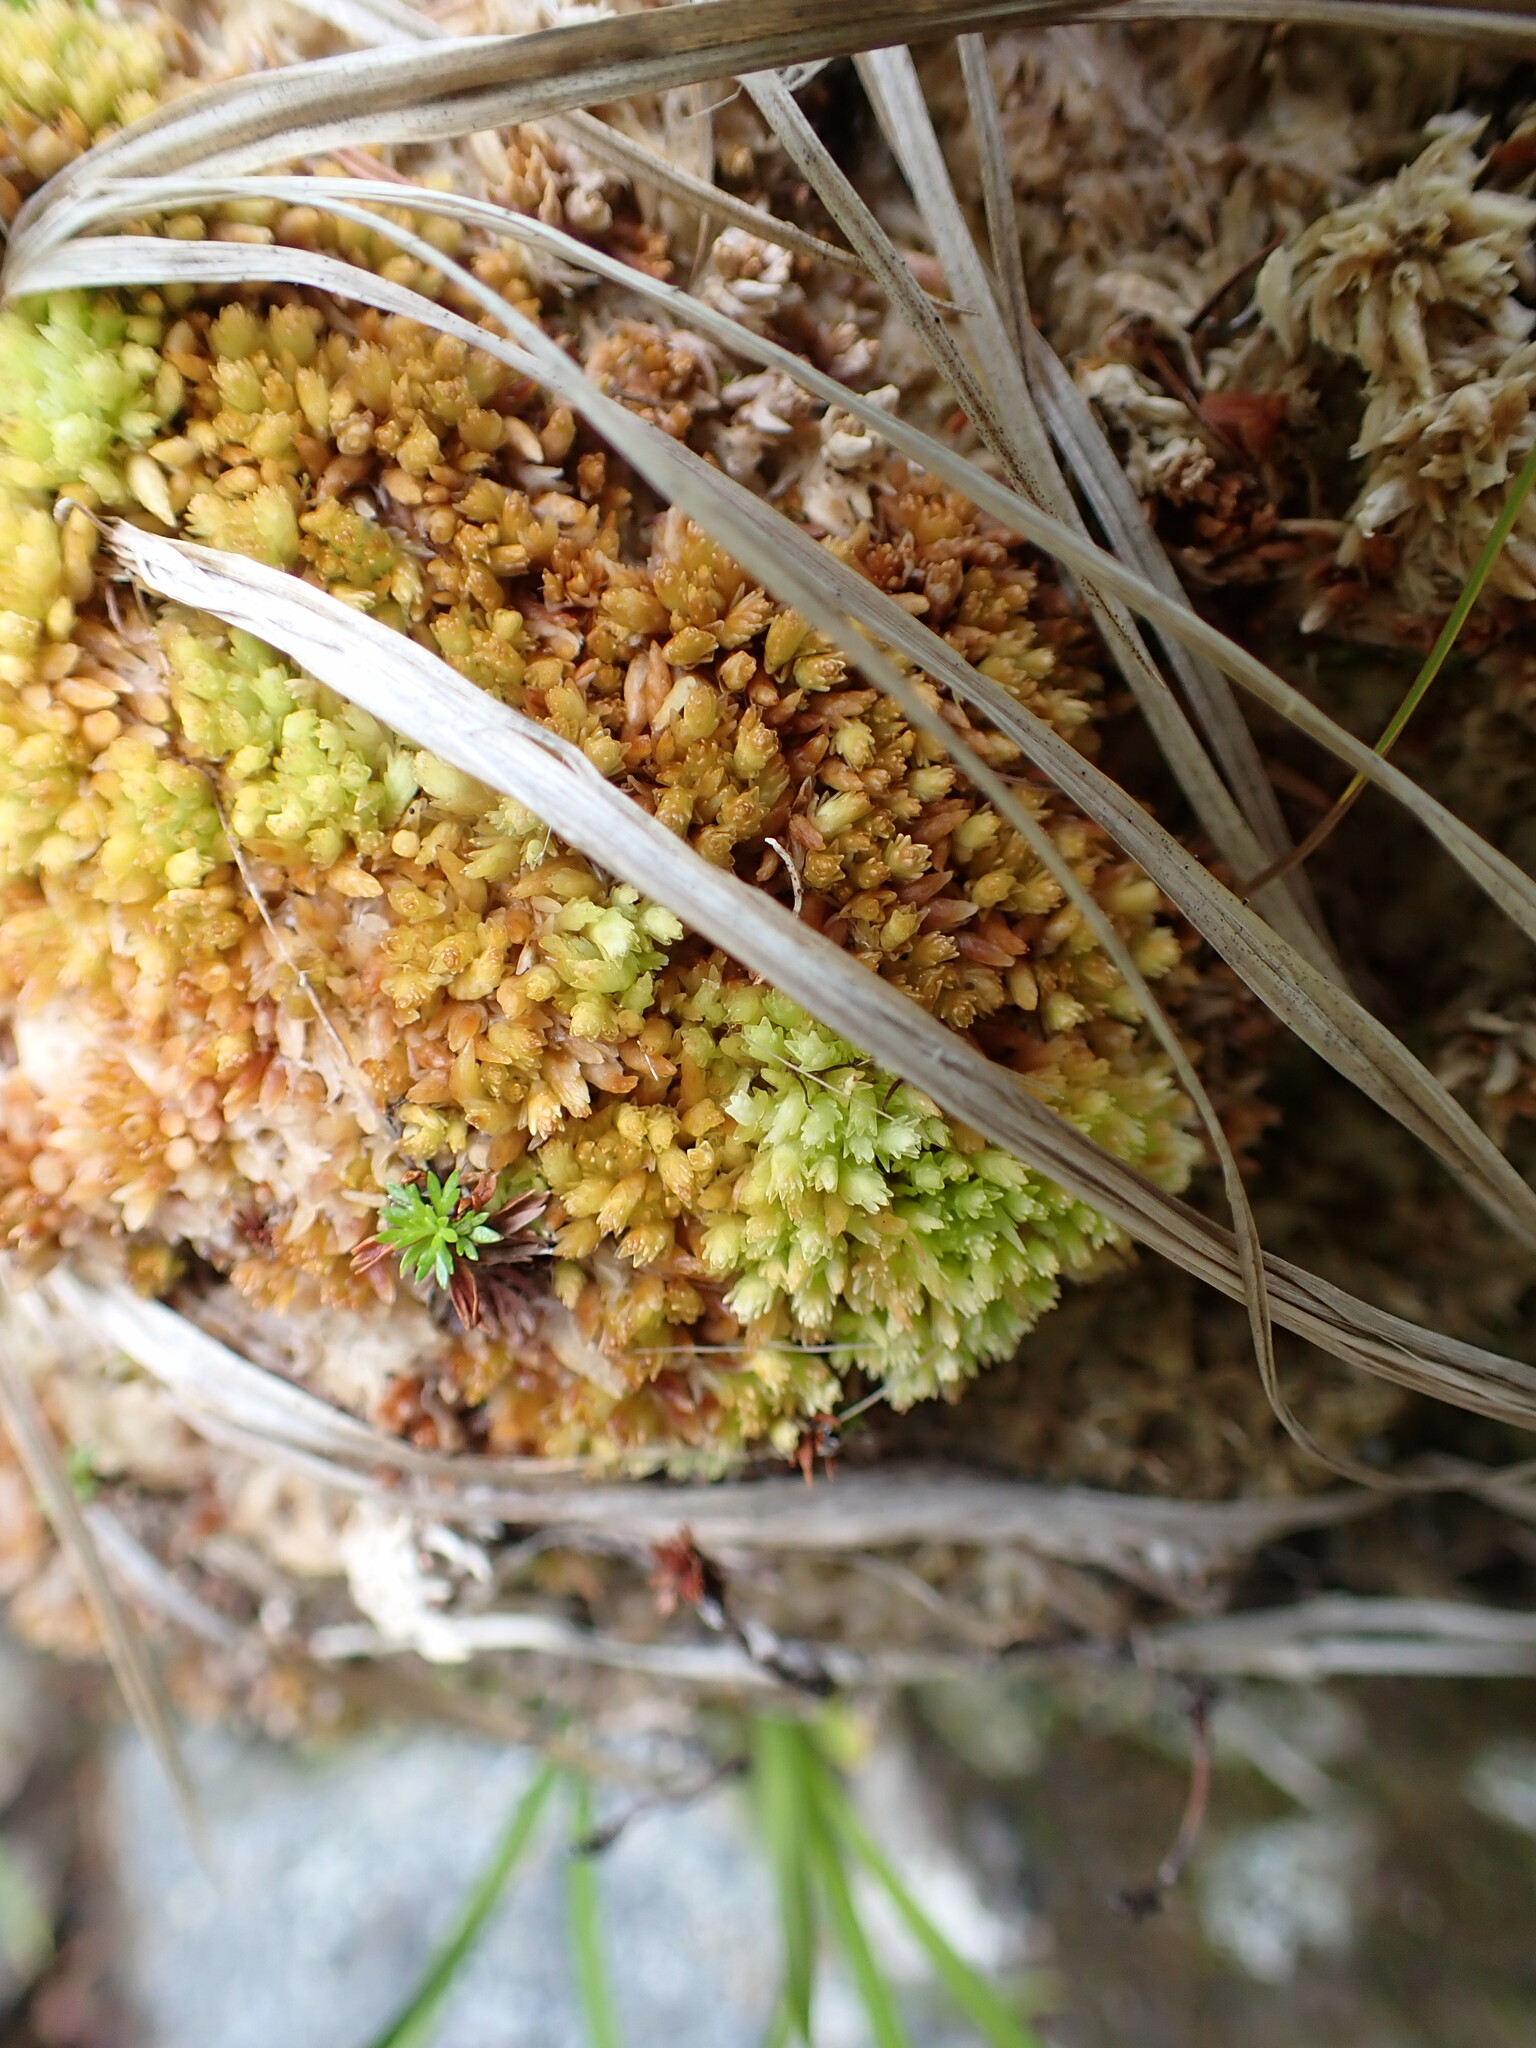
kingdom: Plantae
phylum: Bryophyta
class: Sphagnopsida
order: Sphagnales
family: Sphagnaceae
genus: Sphagnum
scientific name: Sphagnum compactum
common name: Compact peat moss
